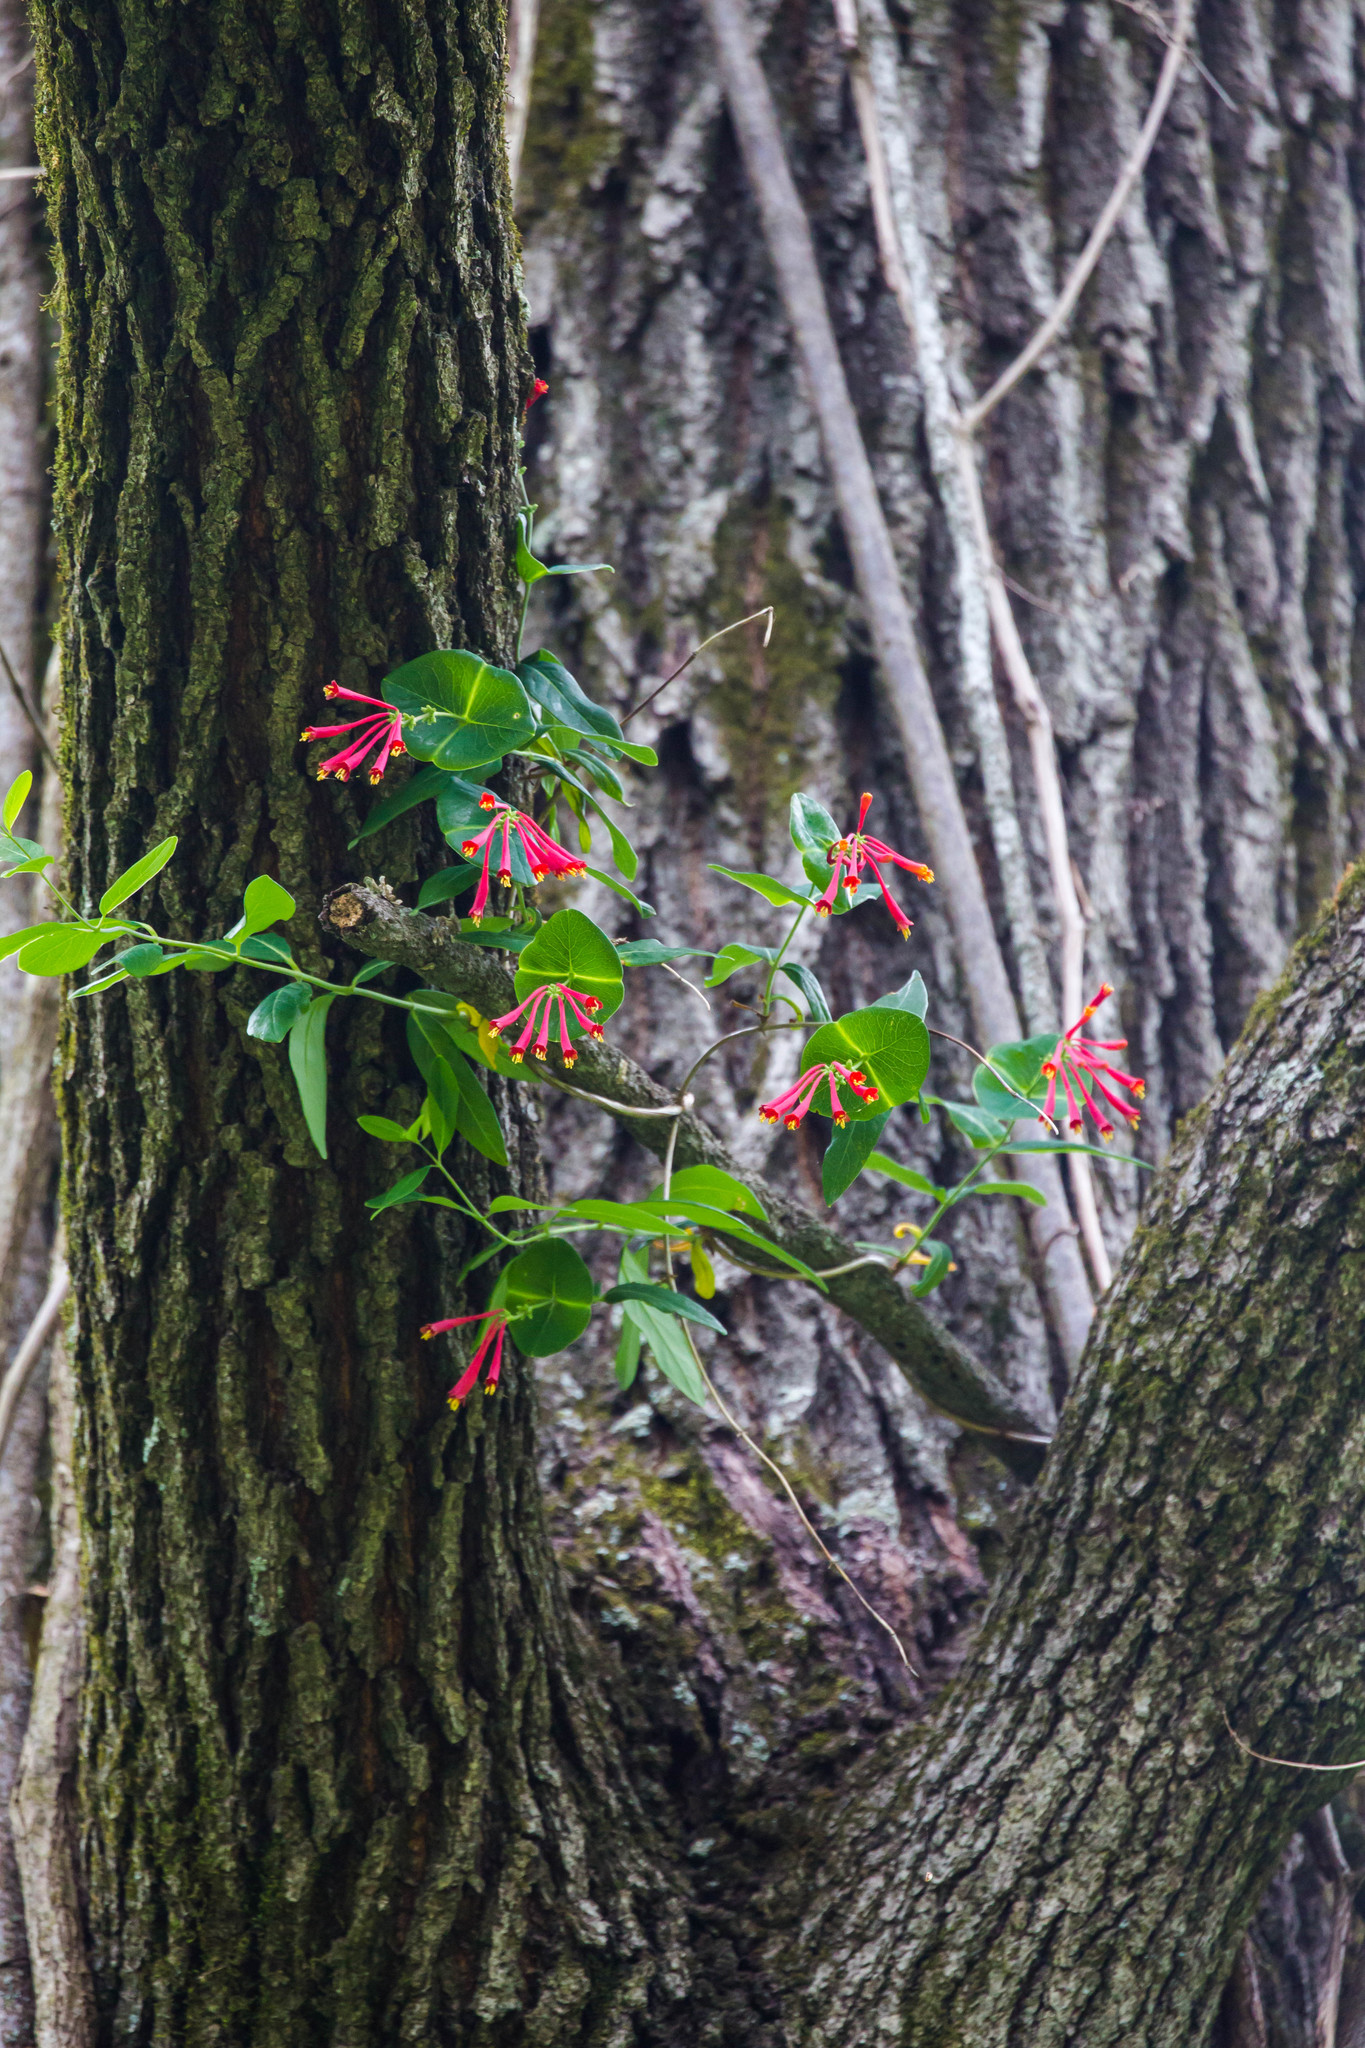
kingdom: Plantae
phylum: Tracheophyta
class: Magnoliopsida
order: Dipsacales
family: Caprifoliaceae
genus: Lonicera
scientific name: Lonicera sempervirens
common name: Coral honeysuckle
